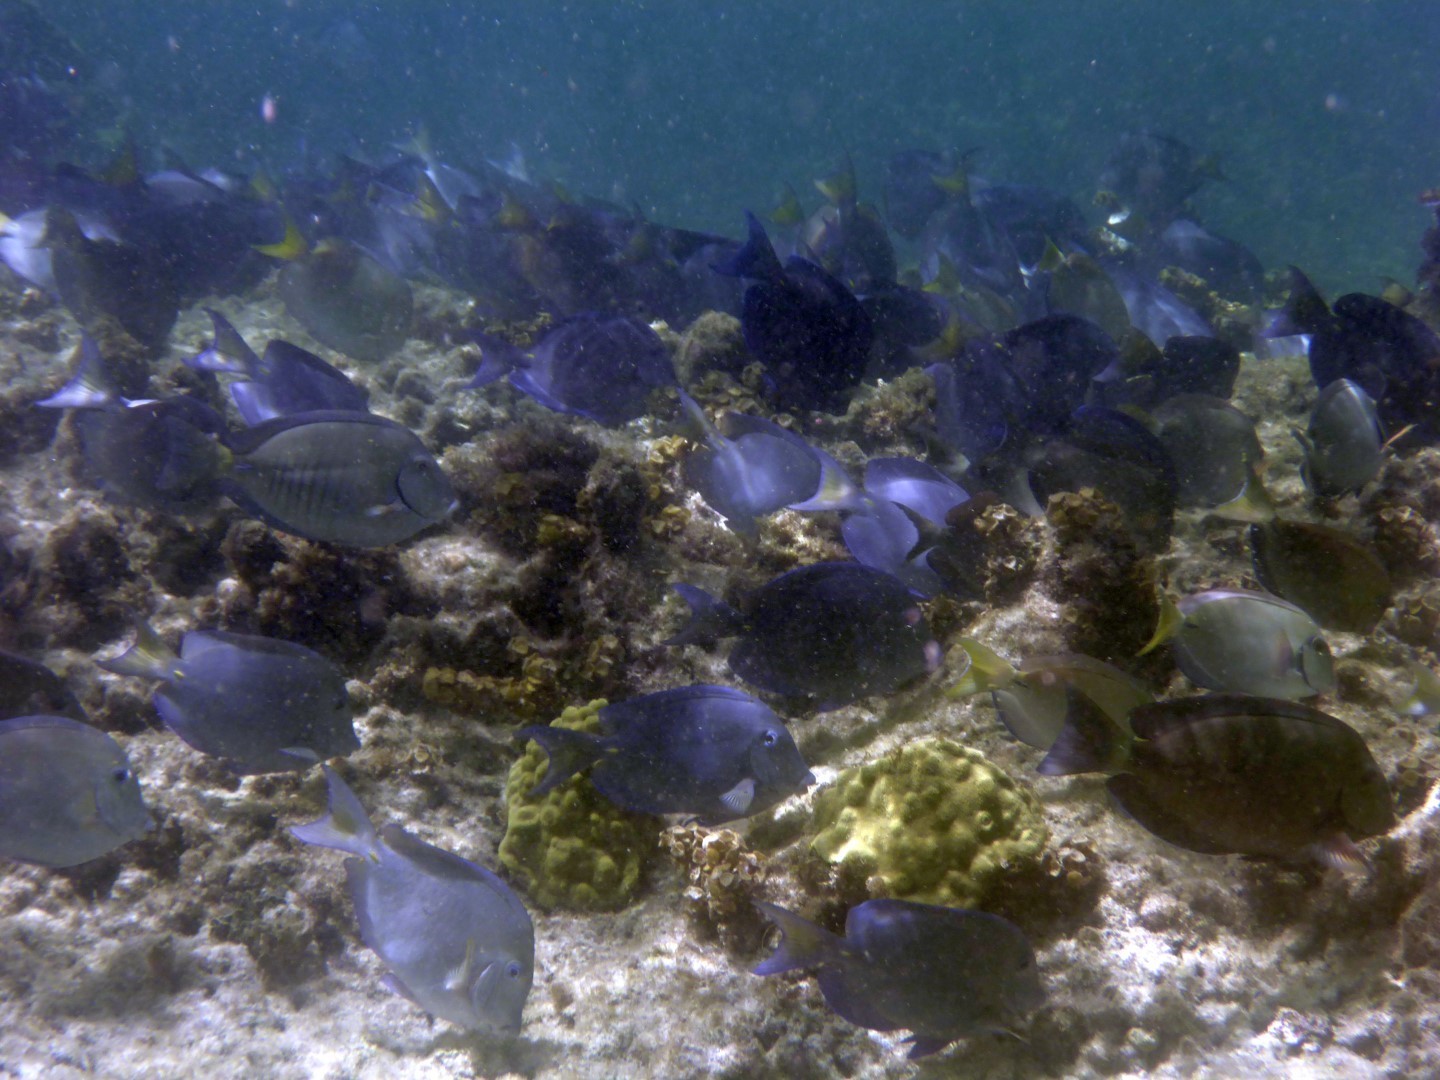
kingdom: Animalia
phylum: Chordata
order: Perciformes
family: Acanthuridae
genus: Acanthurus
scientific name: Acanthurus coeruleus
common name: Blue tang
